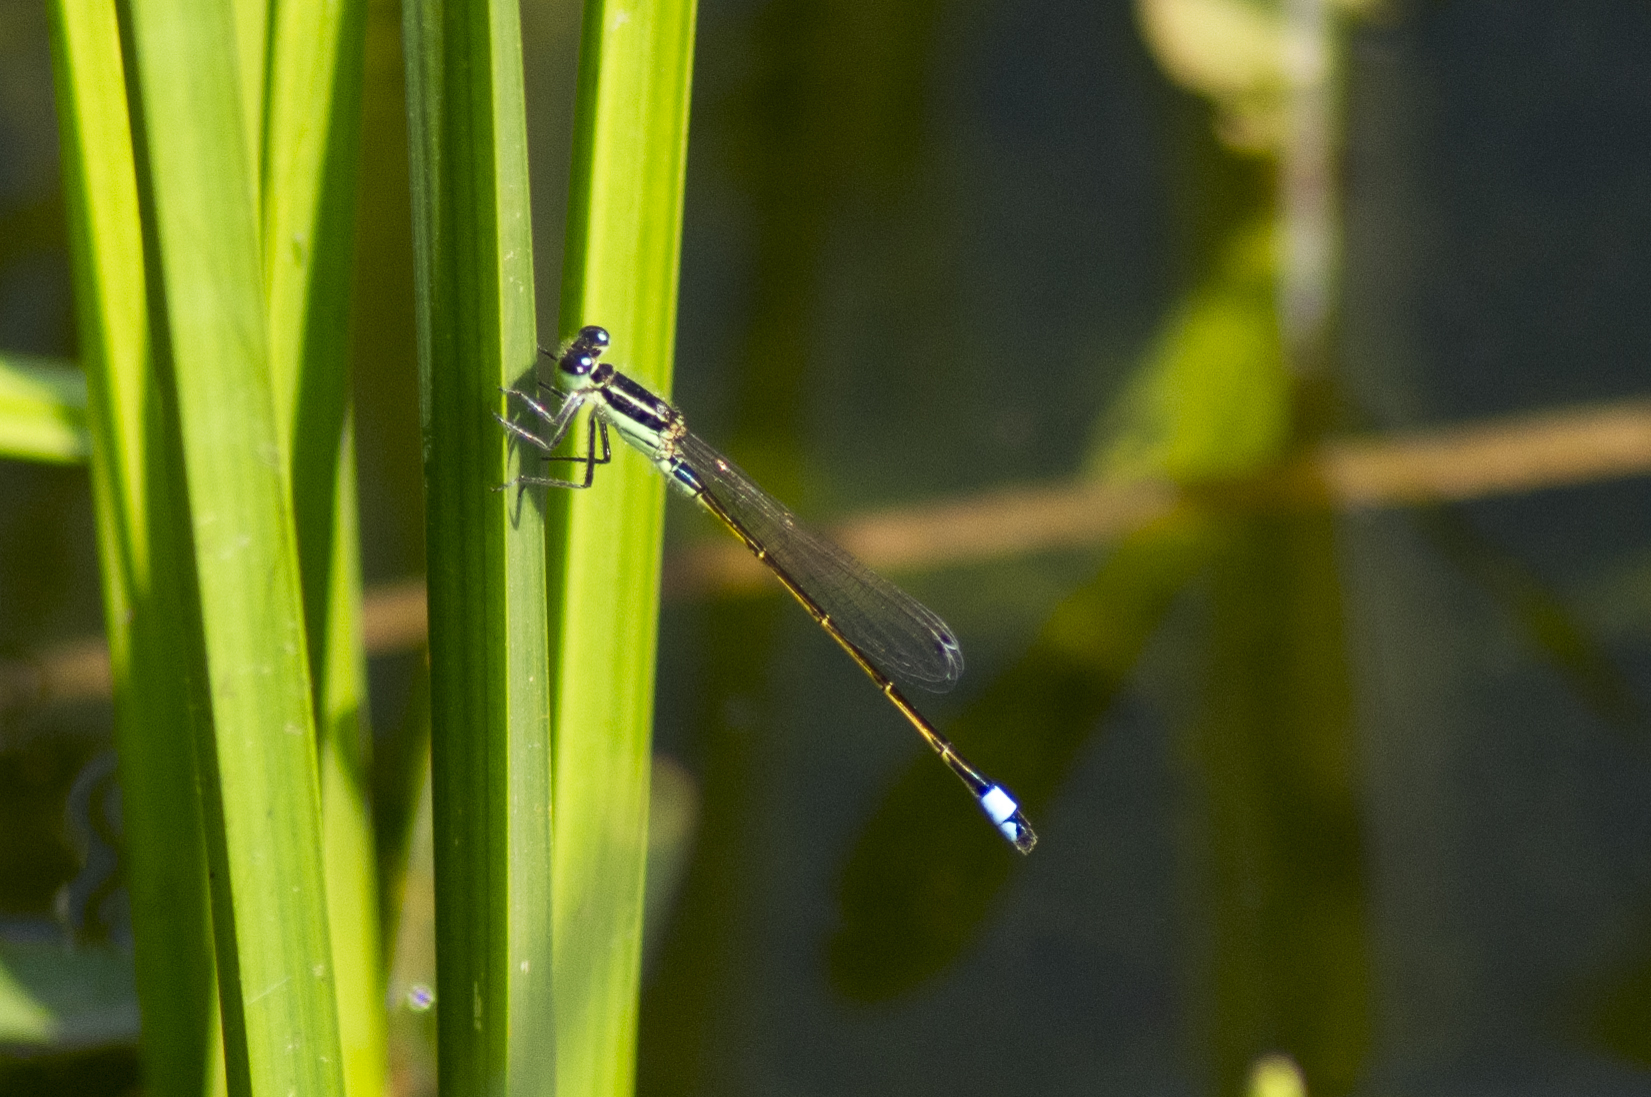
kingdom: Animalia
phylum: Arthropoda
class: Insecta
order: Odonata
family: Coenagrionidae
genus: Ischnura
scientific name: Ischnura ramburii
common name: Rambur's forktail
